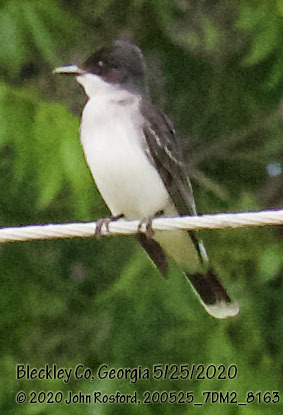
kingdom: Animalia
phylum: Chordata
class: Aves
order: Passeriformes
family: Tyrannidae
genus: Tyrannus
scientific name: Tyrannus tyrannus
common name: Eastern kingbird
